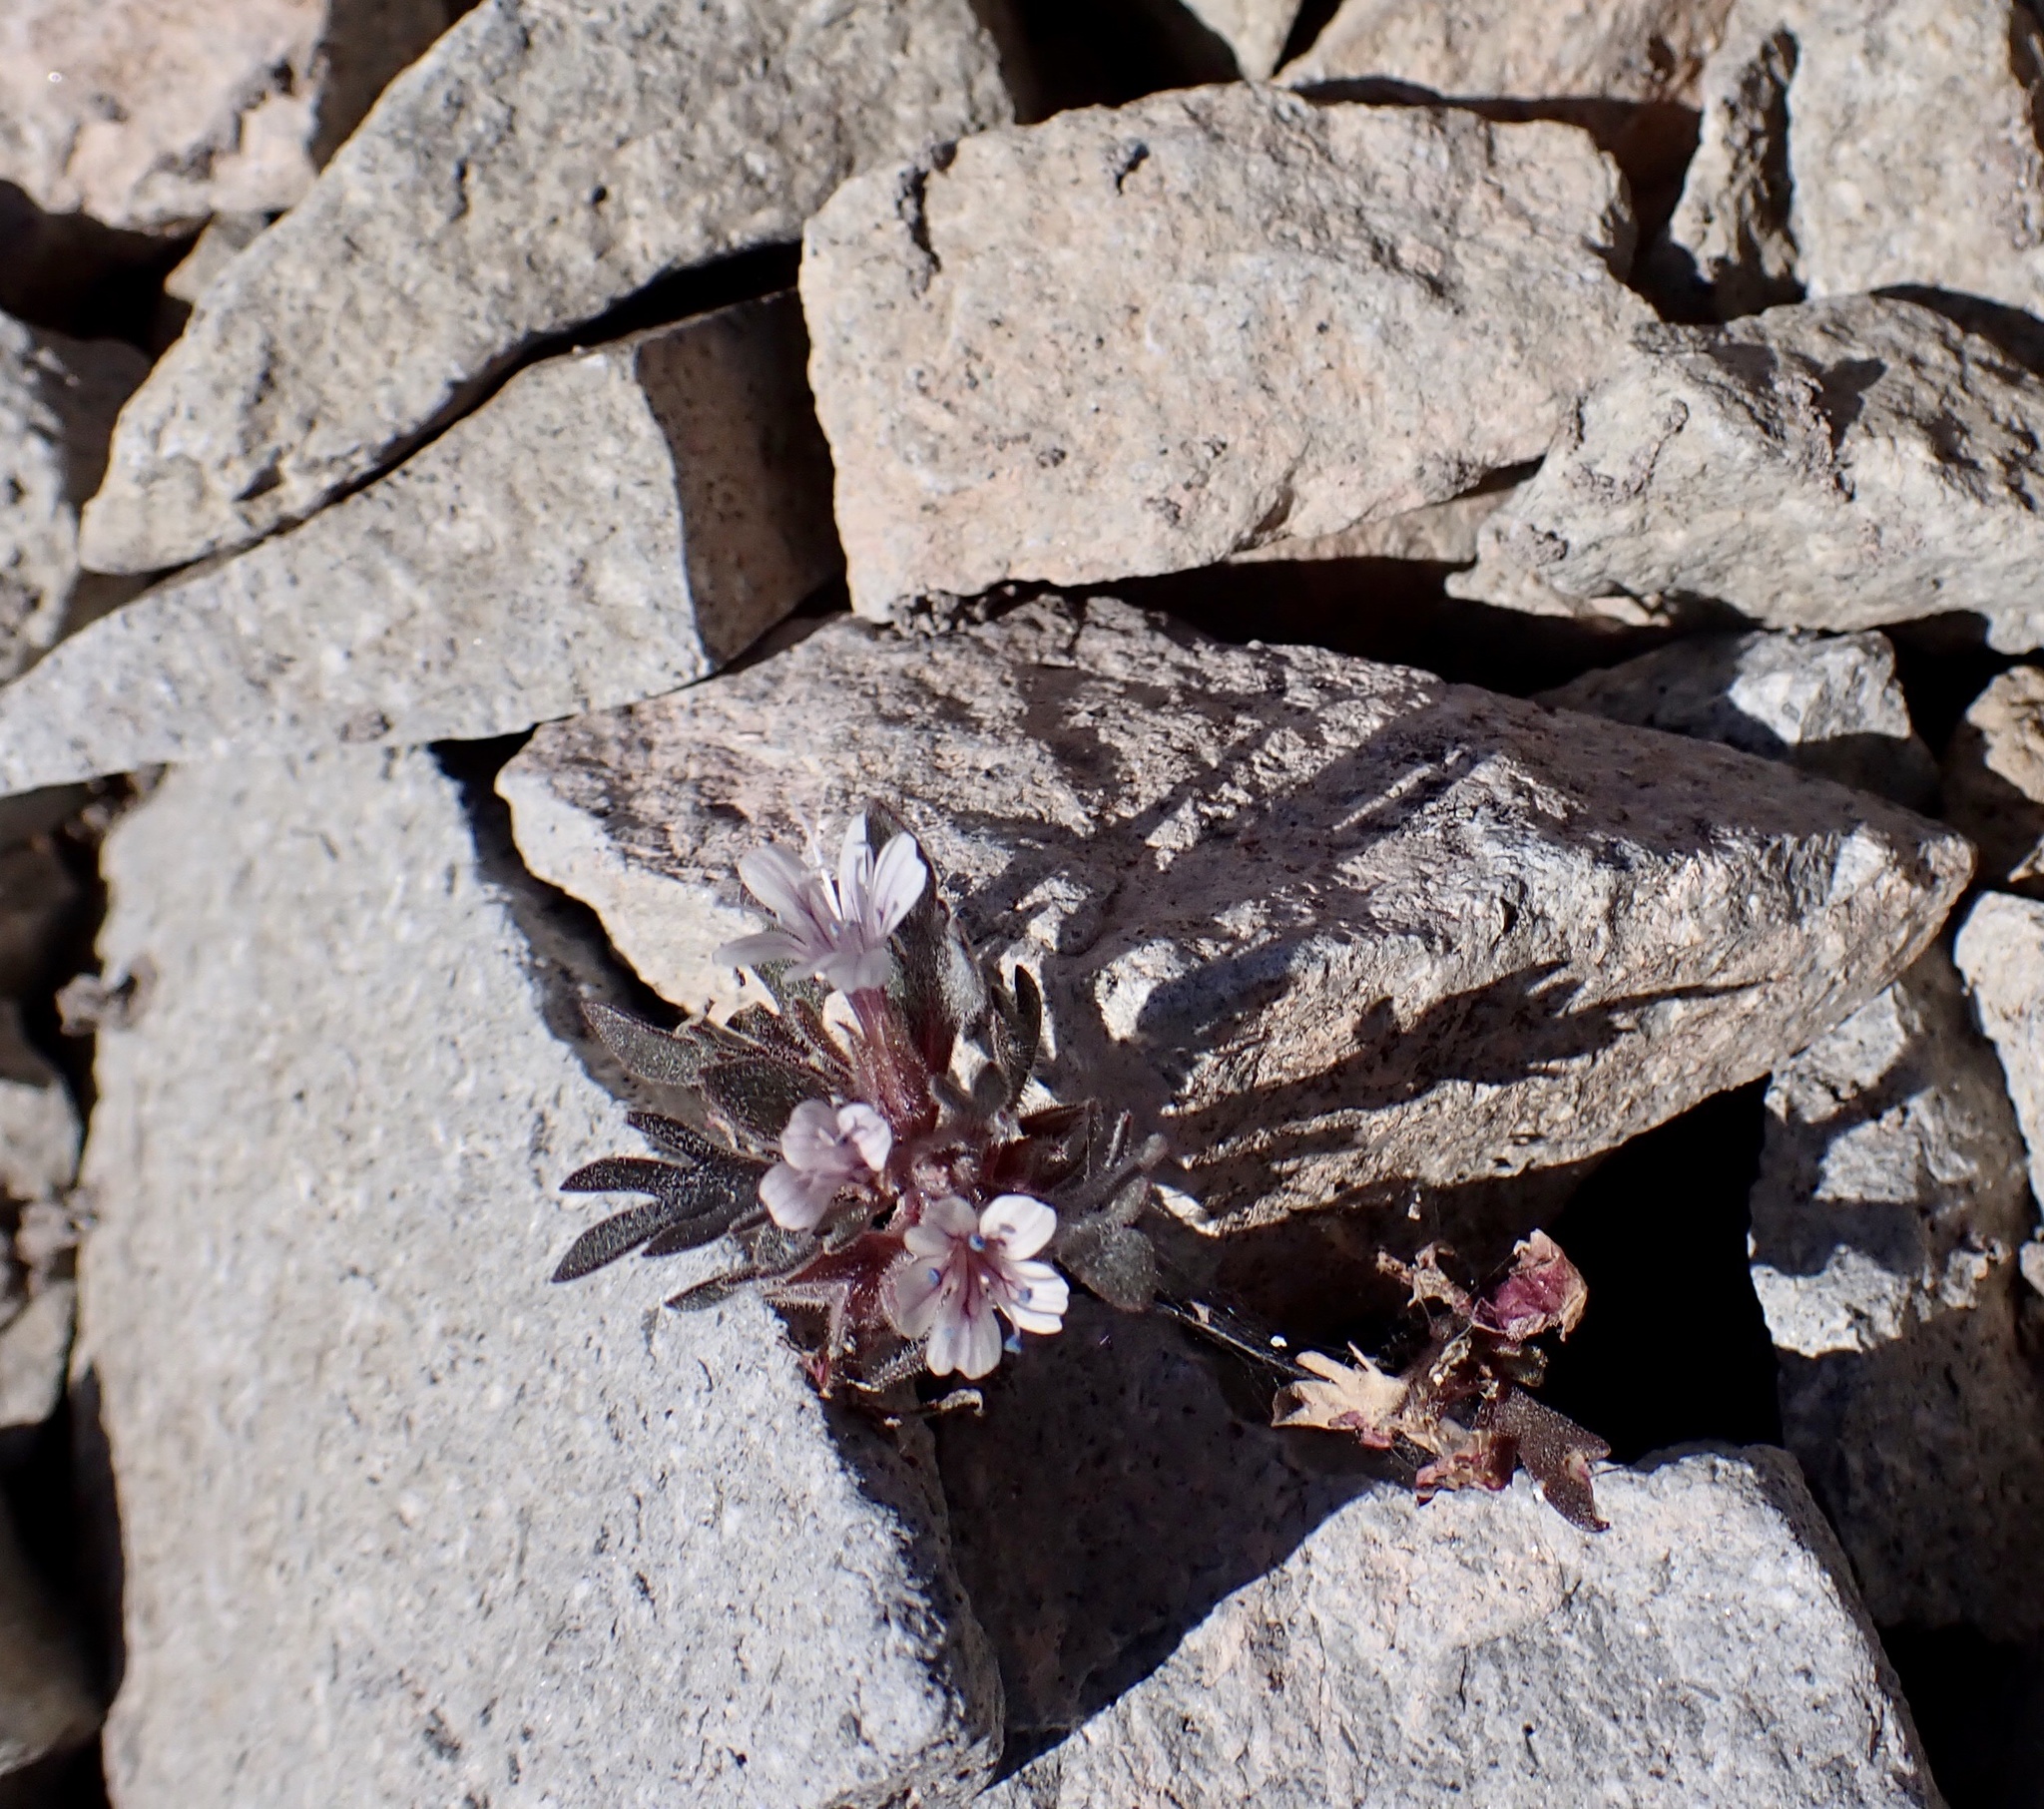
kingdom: Plantae
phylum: Tracheophyta
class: Magnoliopsida
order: Ericales
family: Polemoniaceae
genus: Collomia
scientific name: Collomia larsenii
